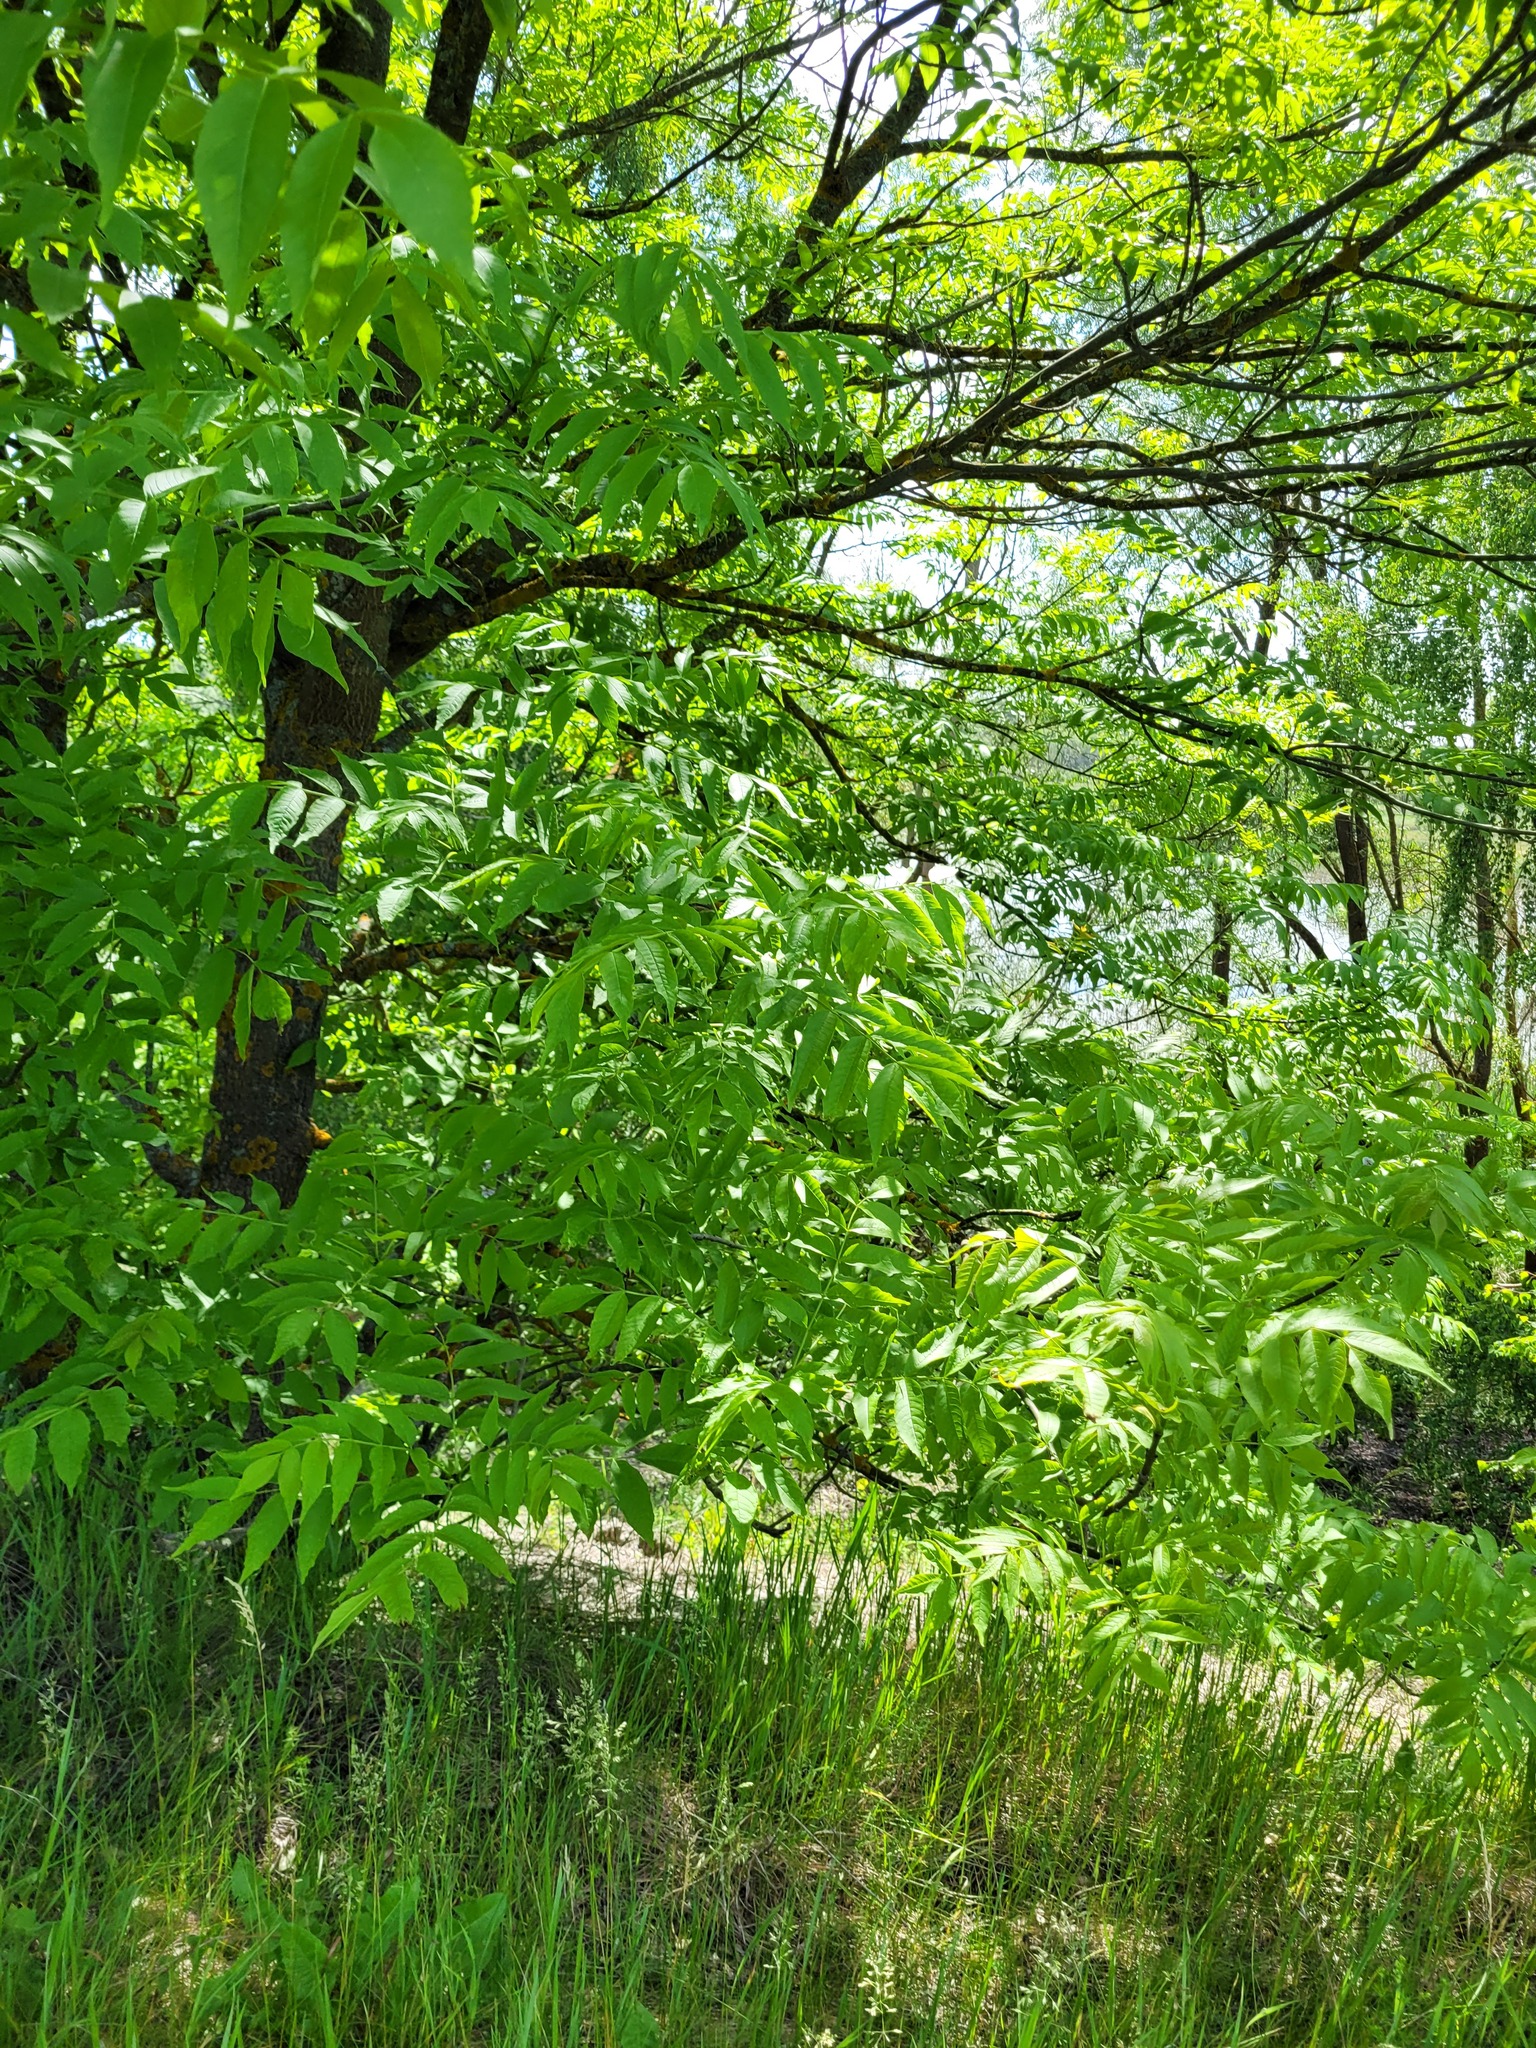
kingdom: Plantae
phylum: Tracheophyta
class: Magnoliopsida
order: Lamiales
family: Oleaceae
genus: Fraxinus
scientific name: Fraxinus excelsior
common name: European ash
